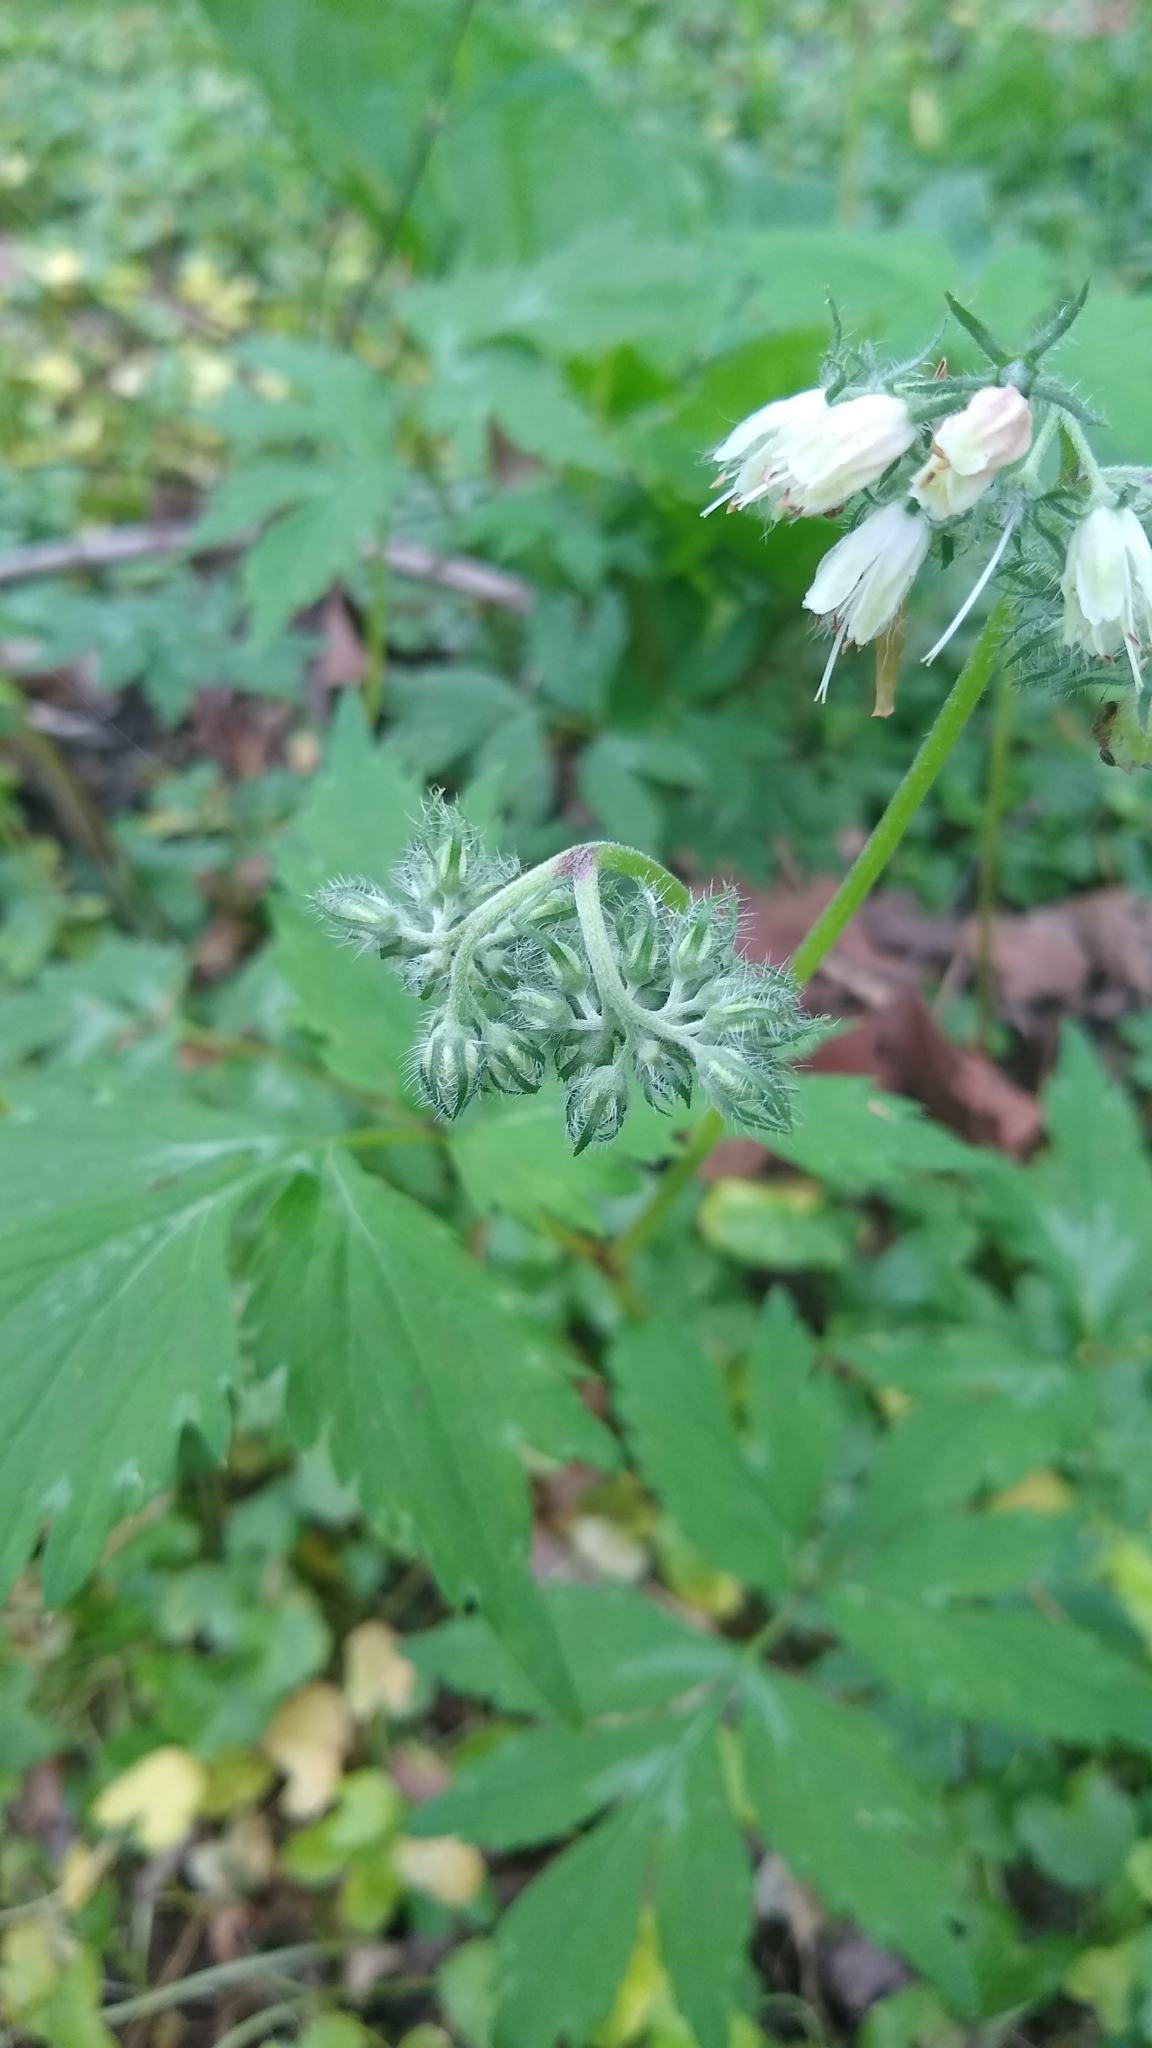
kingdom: Plantae
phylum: Tracheophyta
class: Magnoliopsida
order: Boraginales
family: Hydrophyllaceae
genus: Hydrophyllum
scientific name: Hydrophyllum virginianum
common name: Virginia waterleaf
